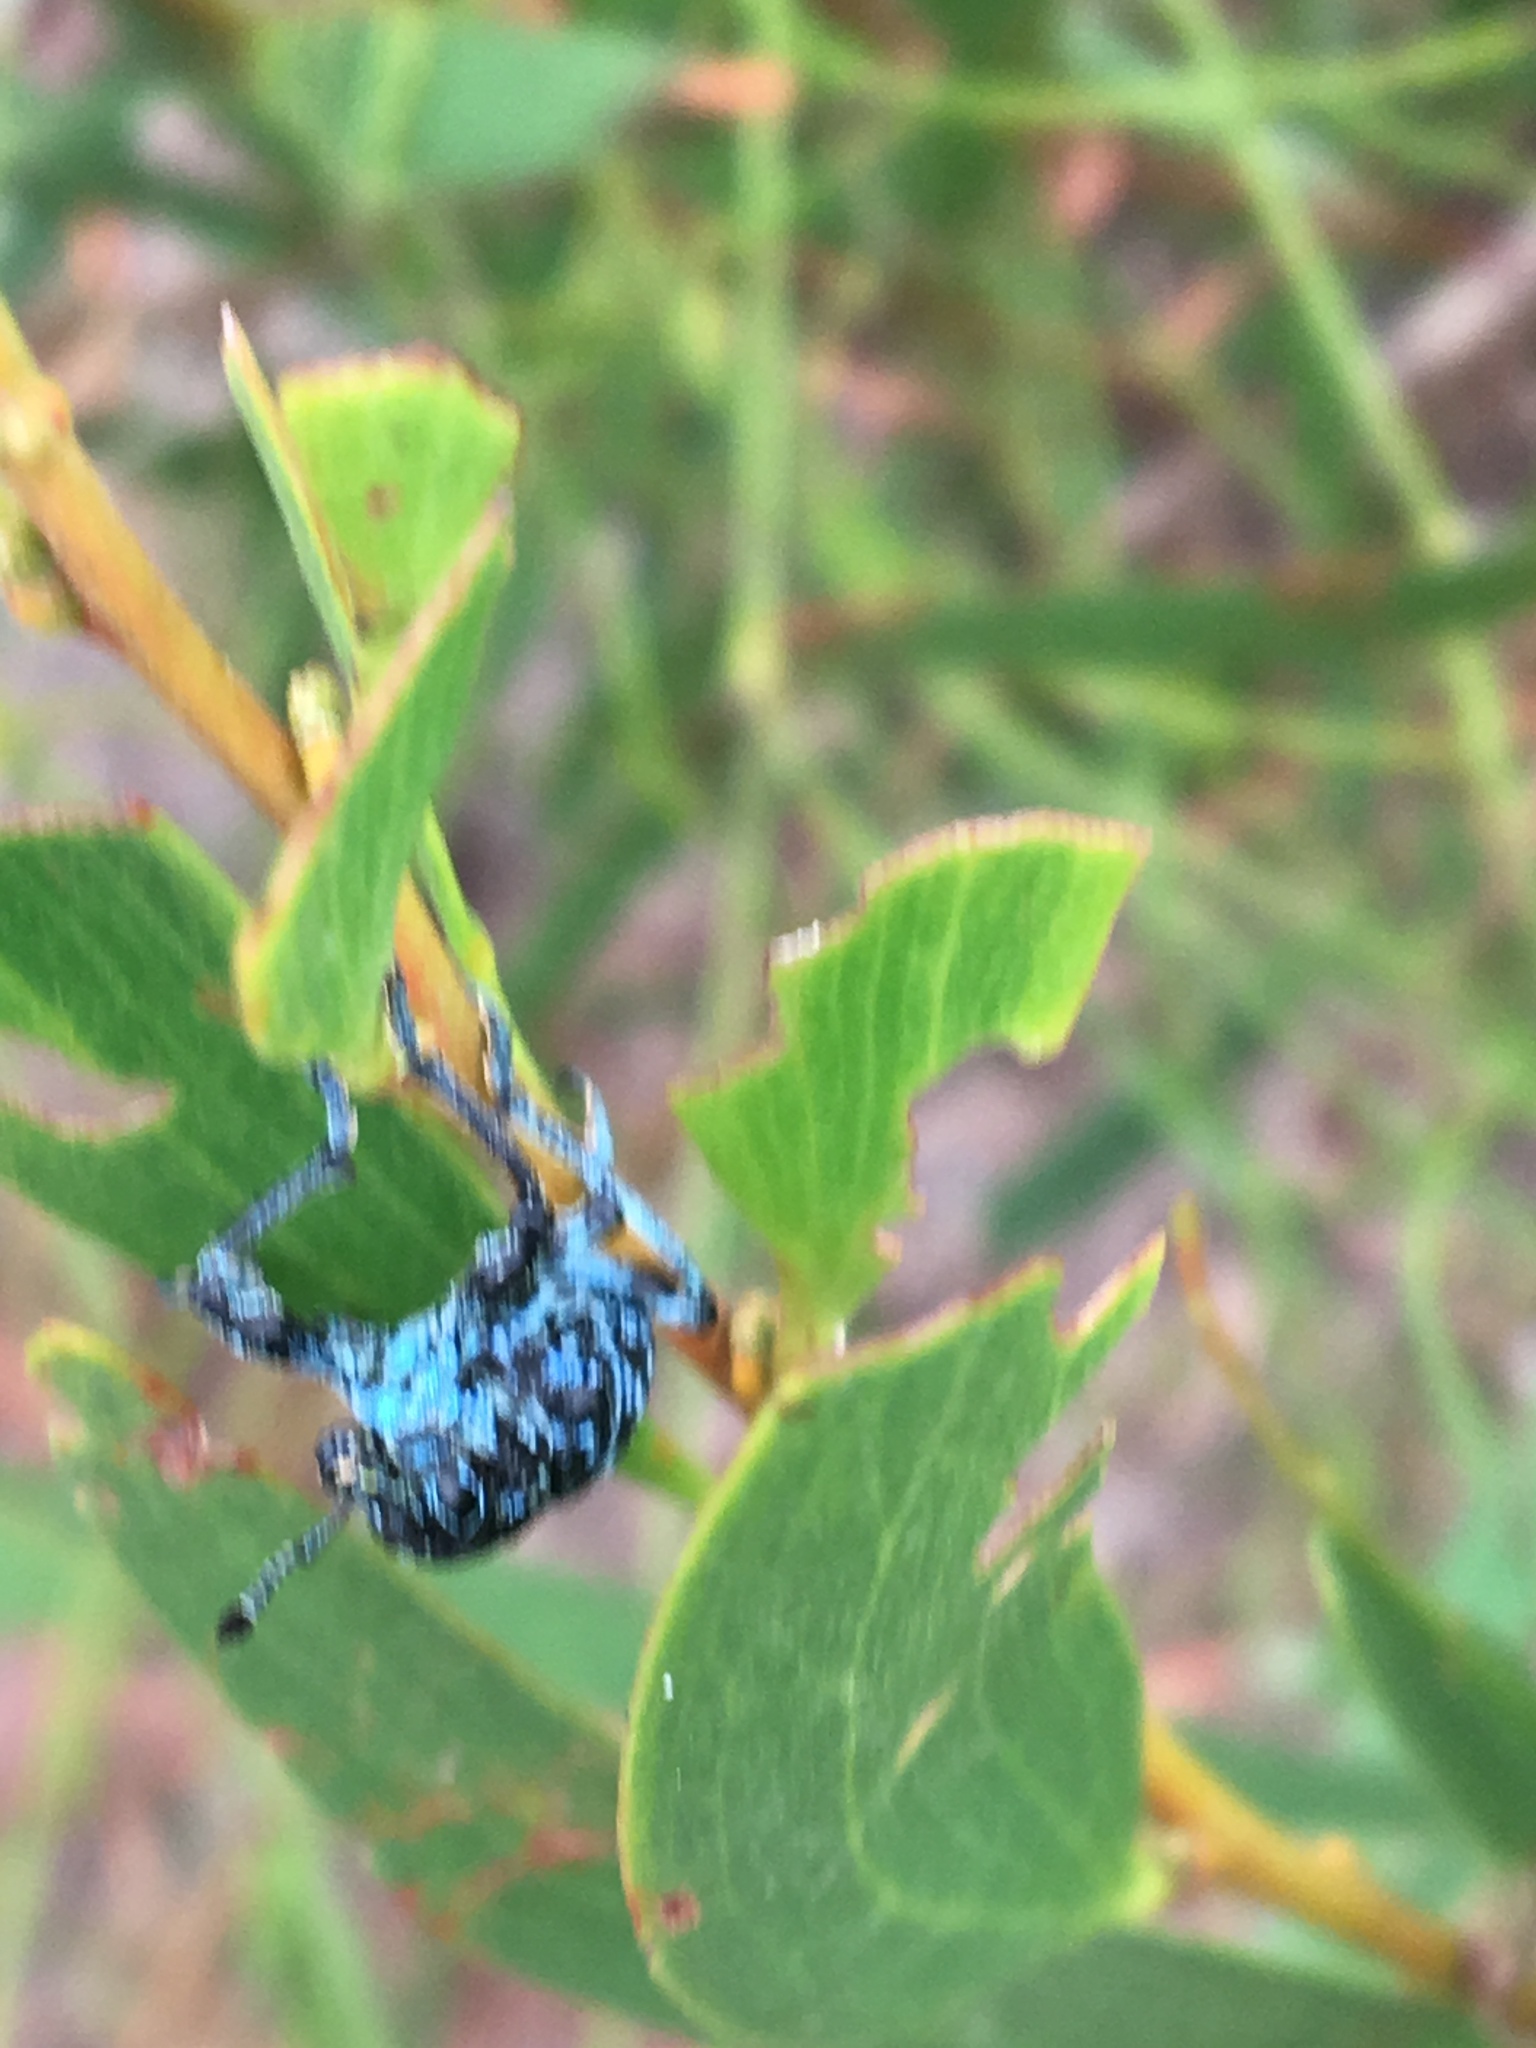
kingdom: Animalia
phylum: Arthropoda
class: Insecta
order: Coleoptera
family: Curculionidae
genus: Chrysolopus
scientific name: Chrysolopus spectabilis
